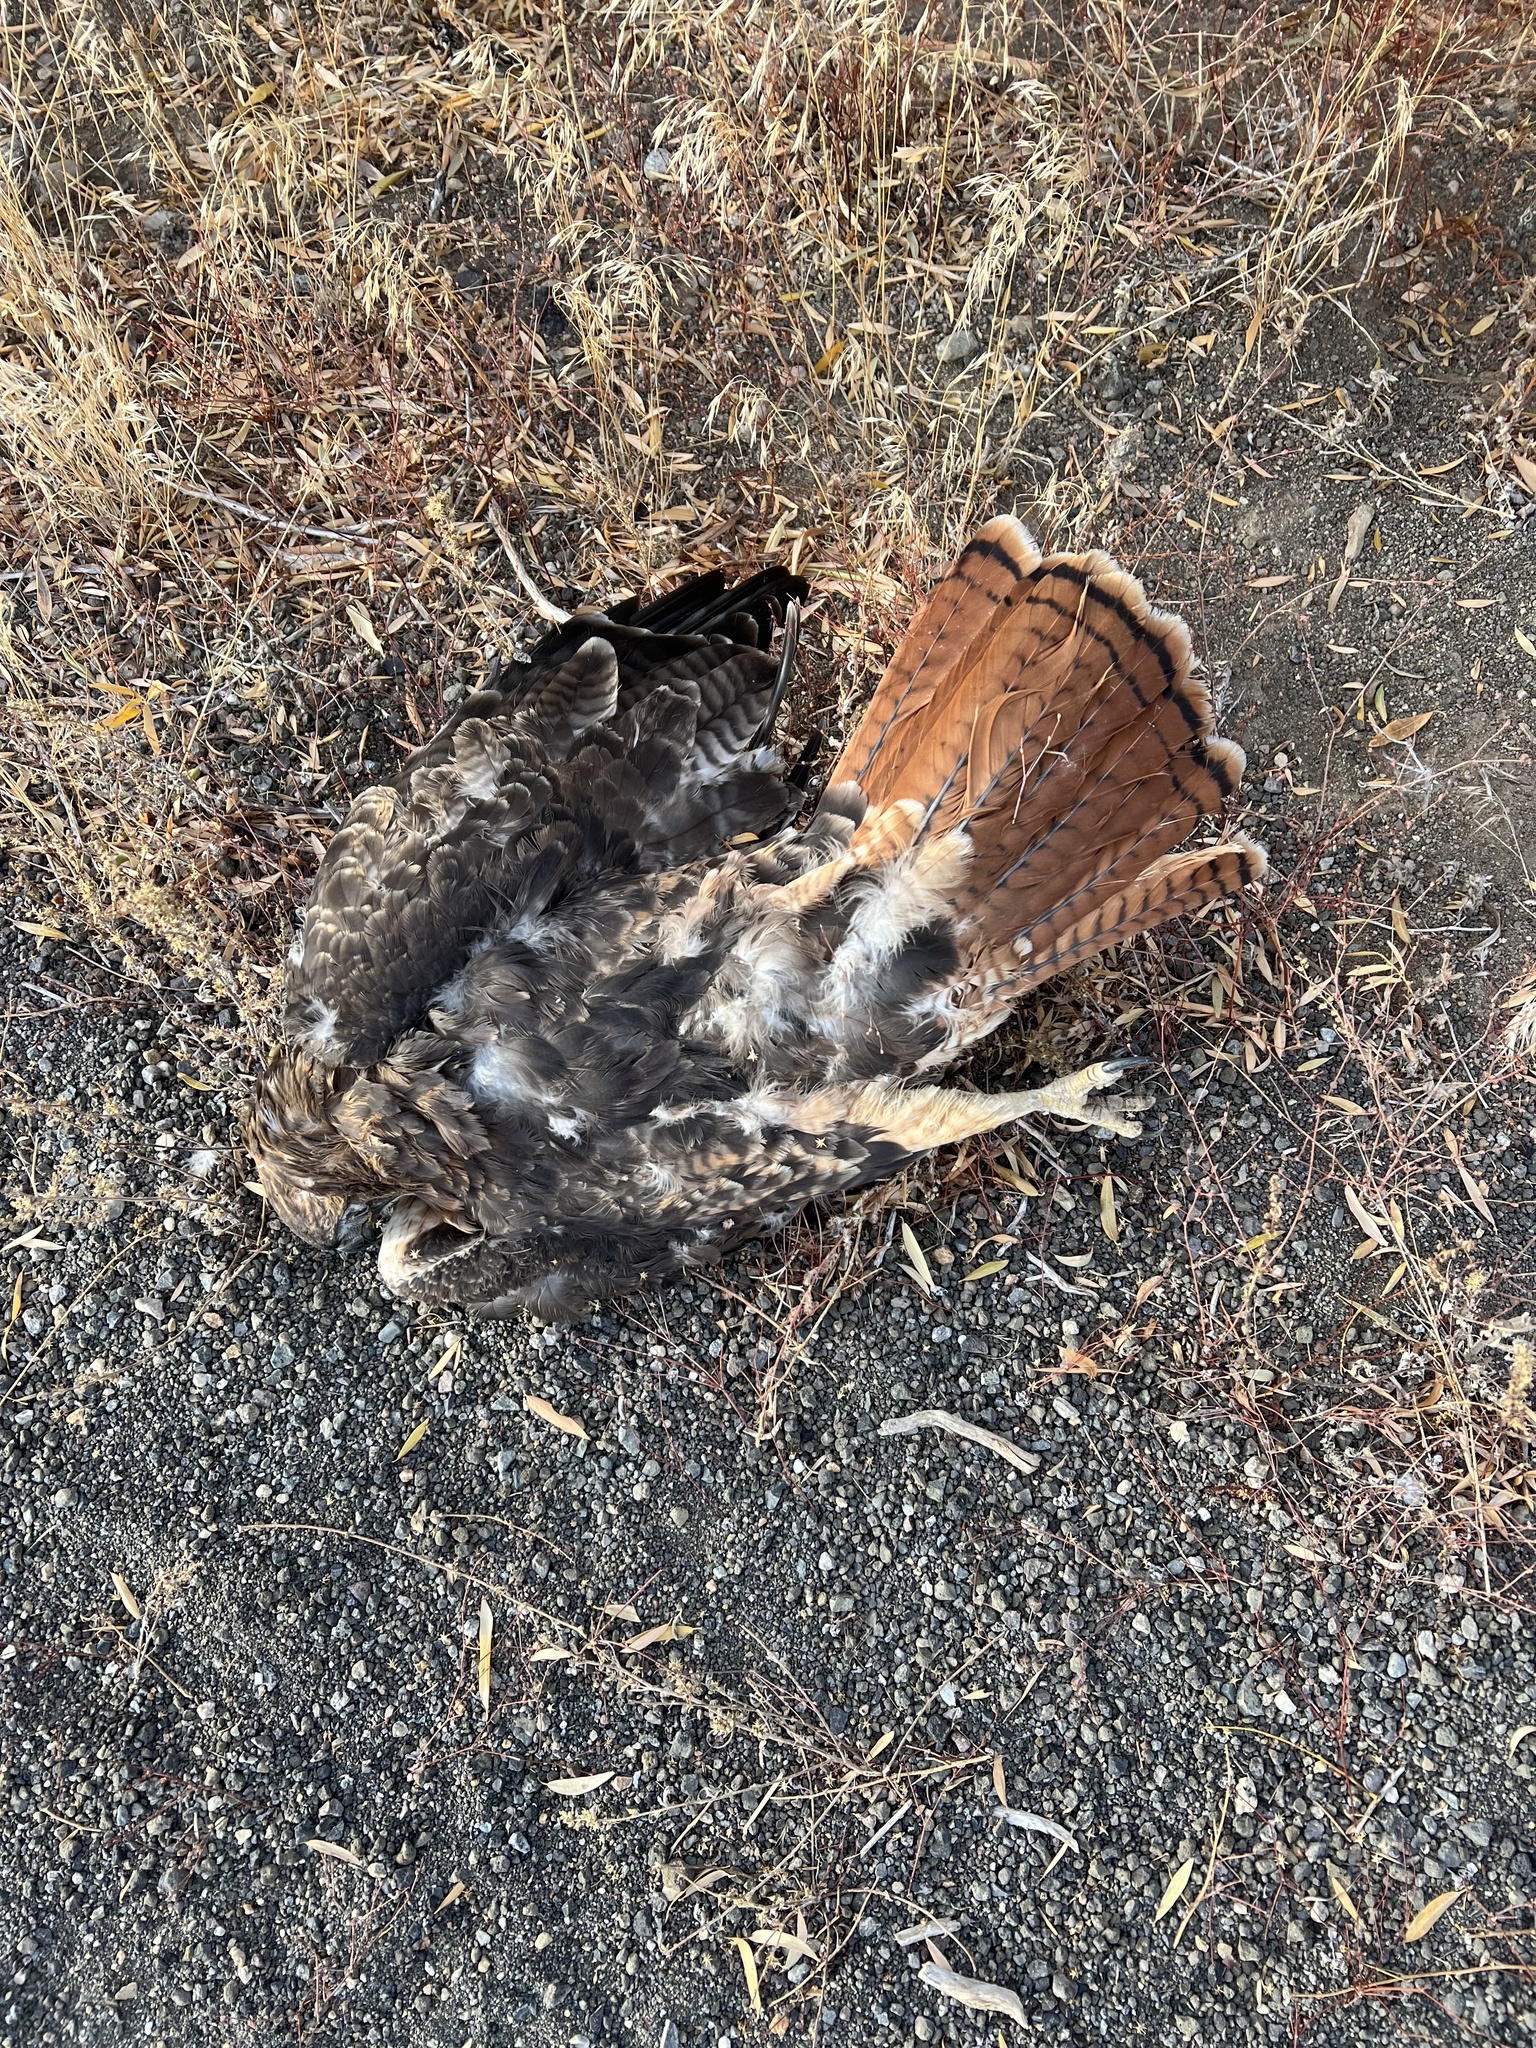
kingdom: Animalia
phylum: Chordata
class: Aves
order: Accipitriformes
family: Accipitridae
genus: Buteo
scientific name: Buteo jamaicensis
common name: Red-tailed hawk
